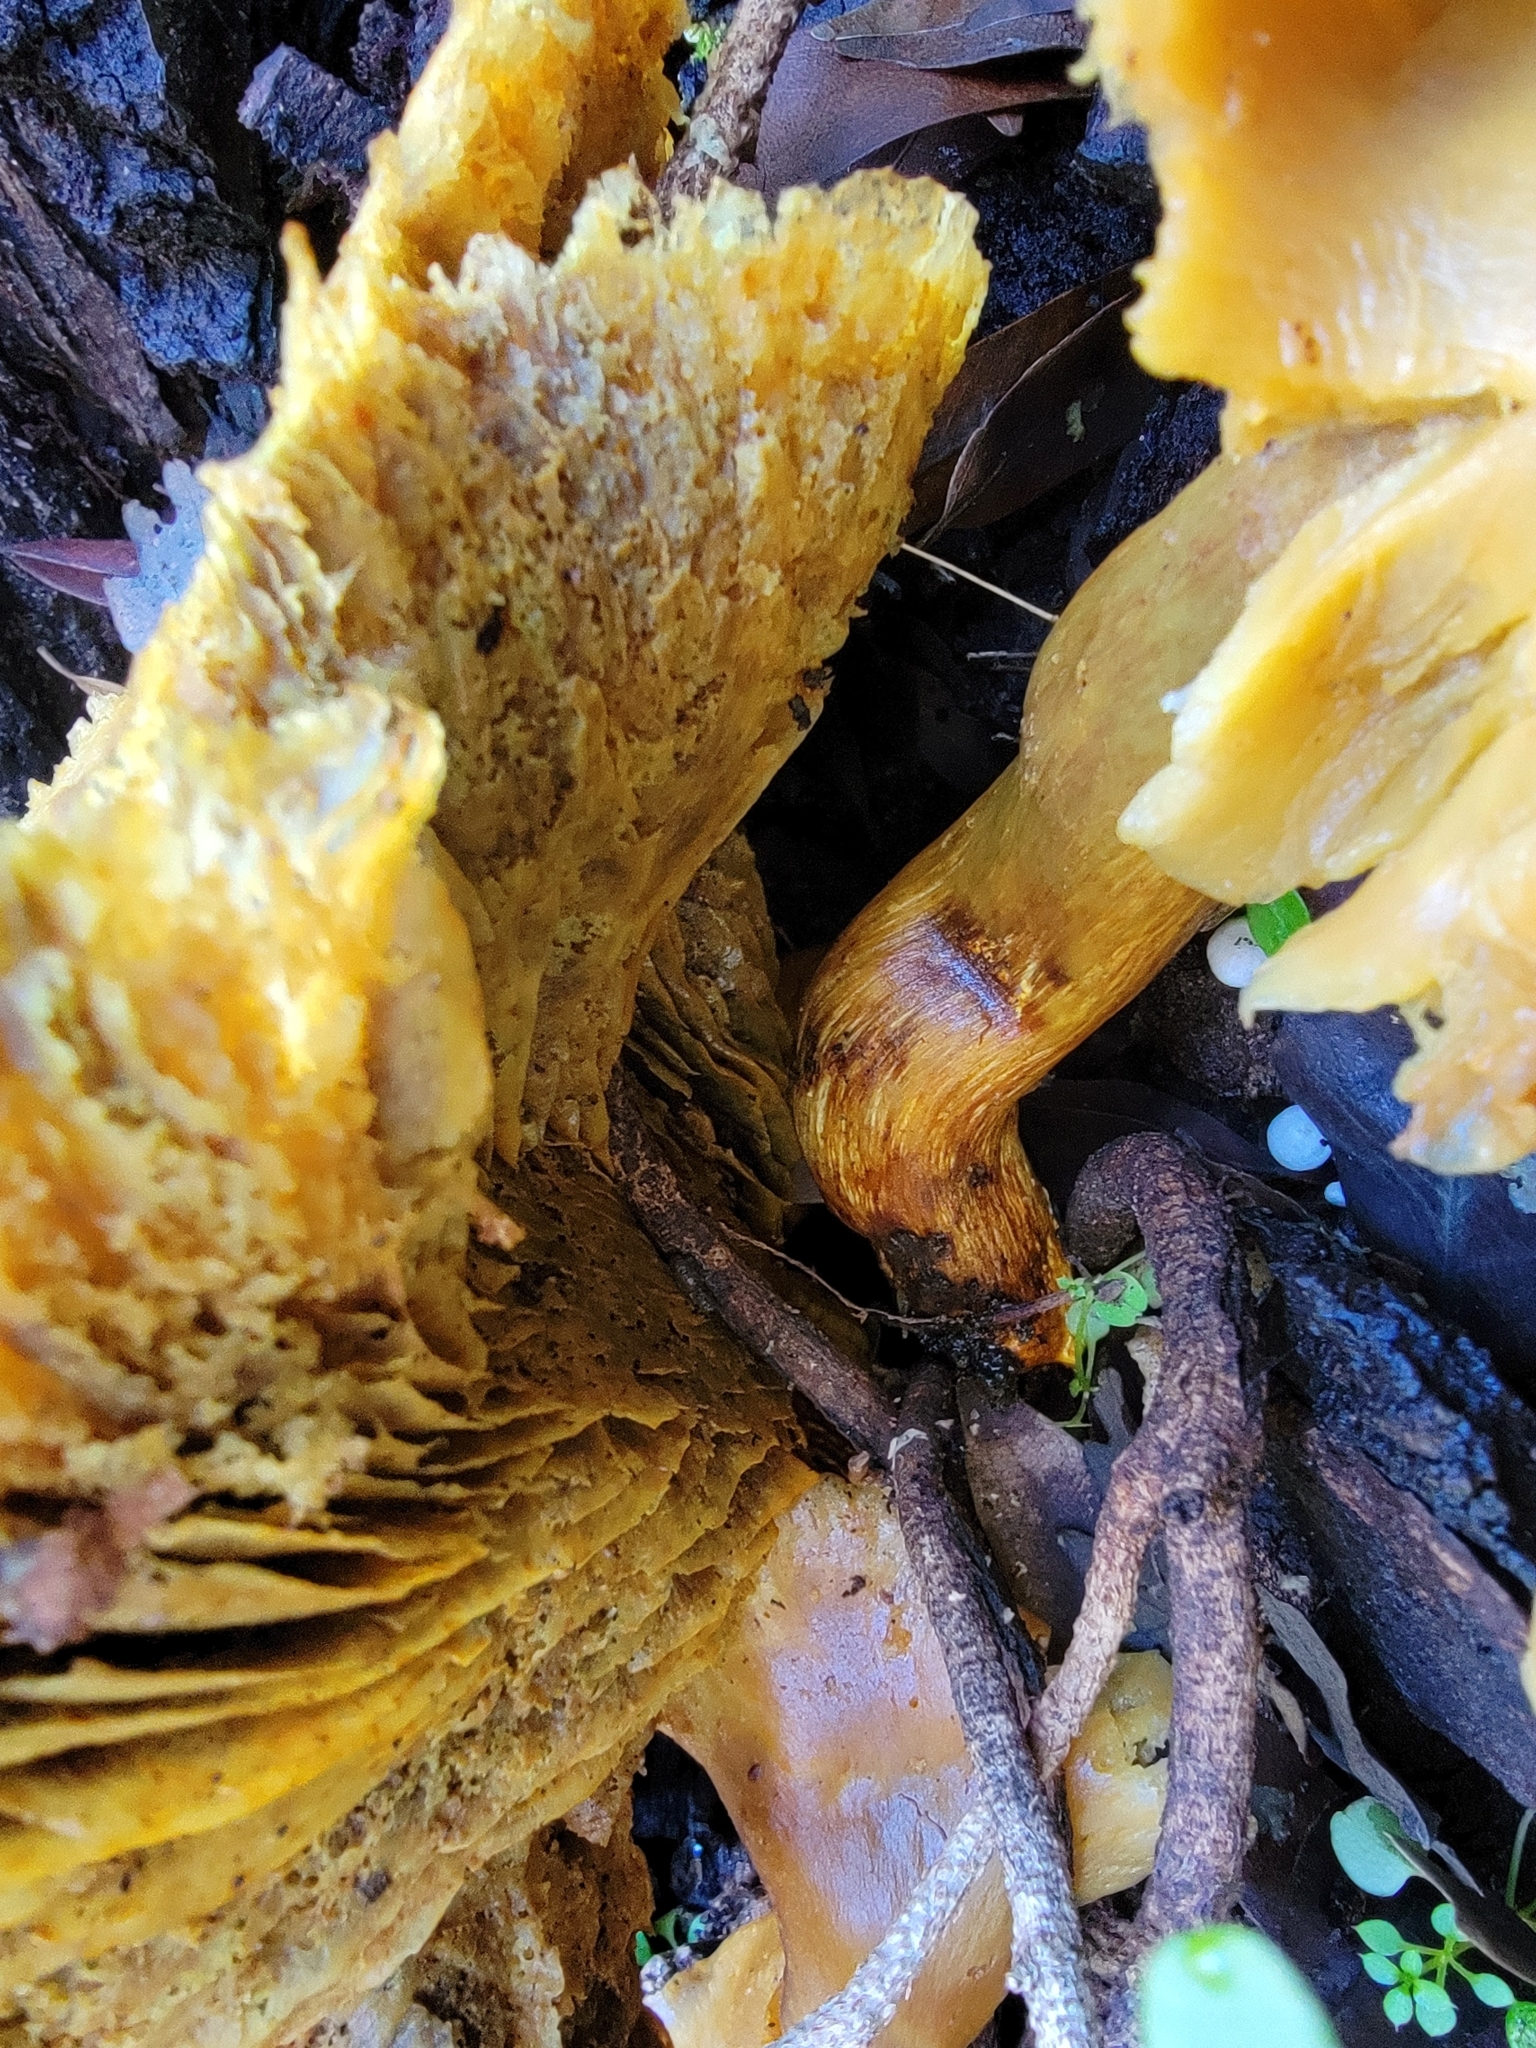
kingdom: Fungi
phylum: Basidiomycota
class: Agaricomycetes
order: Agaricales
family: Omphalotaceae
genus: Omphalotus
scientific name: Omphalotus olivascens
